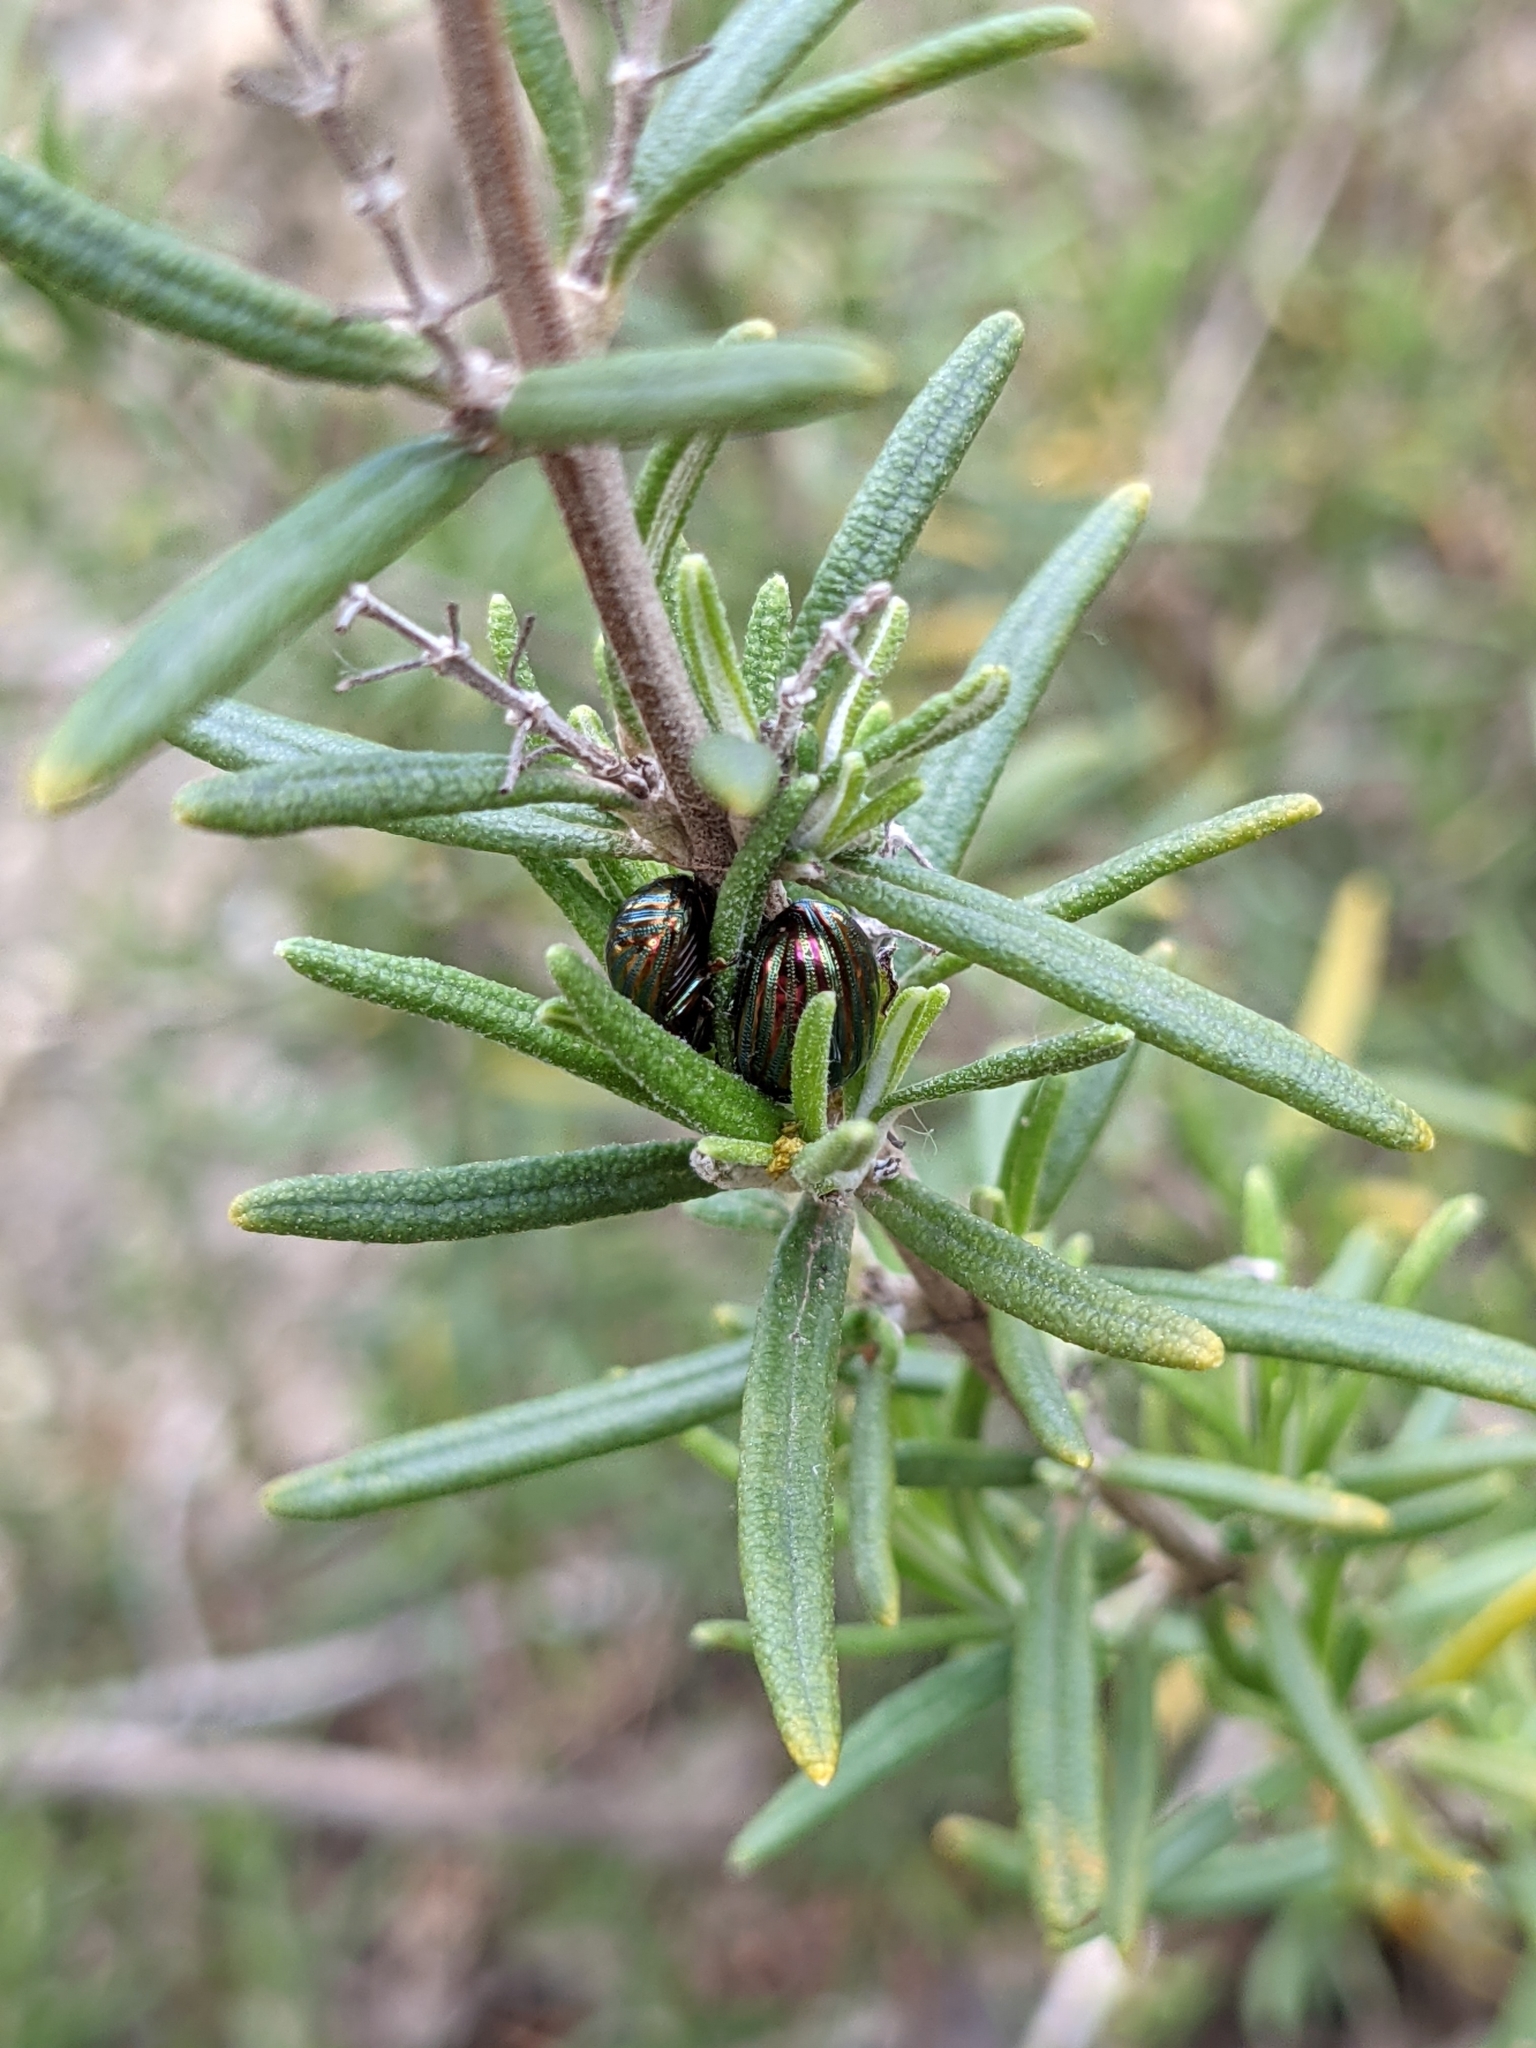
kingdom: Animalia
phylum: Arthropoda
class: Insecta
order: Coleoptera
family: Chrysomelidae
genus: Chrysolina
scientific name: Chrysolina americana
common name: Rosemary beetle
